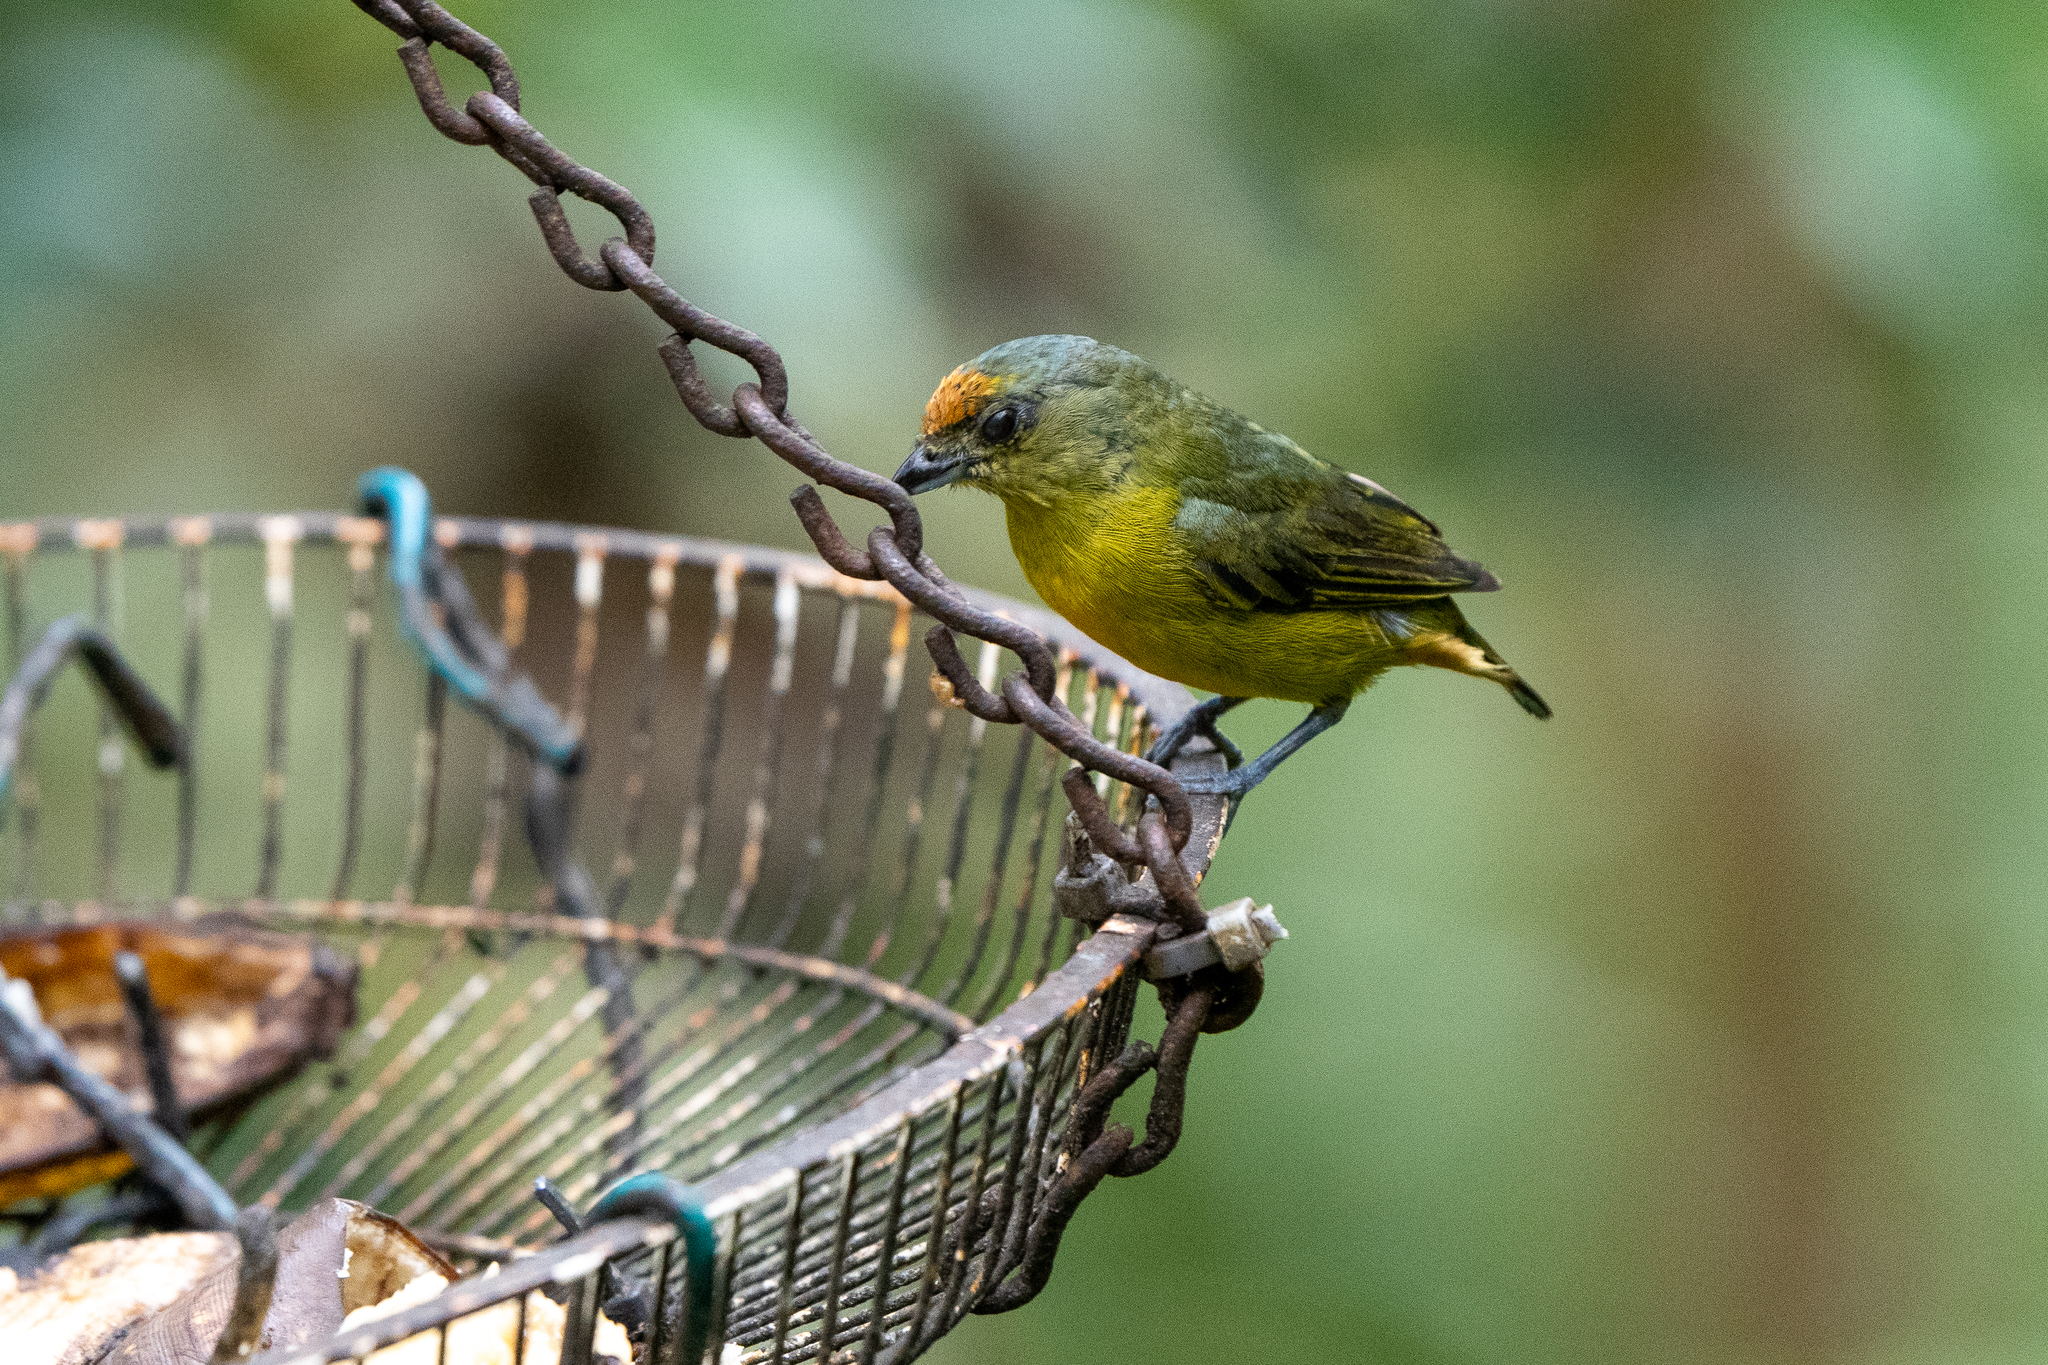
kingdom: Animalia
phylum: Chordata
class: Aves
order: Passeriformes
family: Fringillidae
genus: Euphonia
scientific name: Euphonia fulvicrissa
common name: Fulvous-vented euphonia
